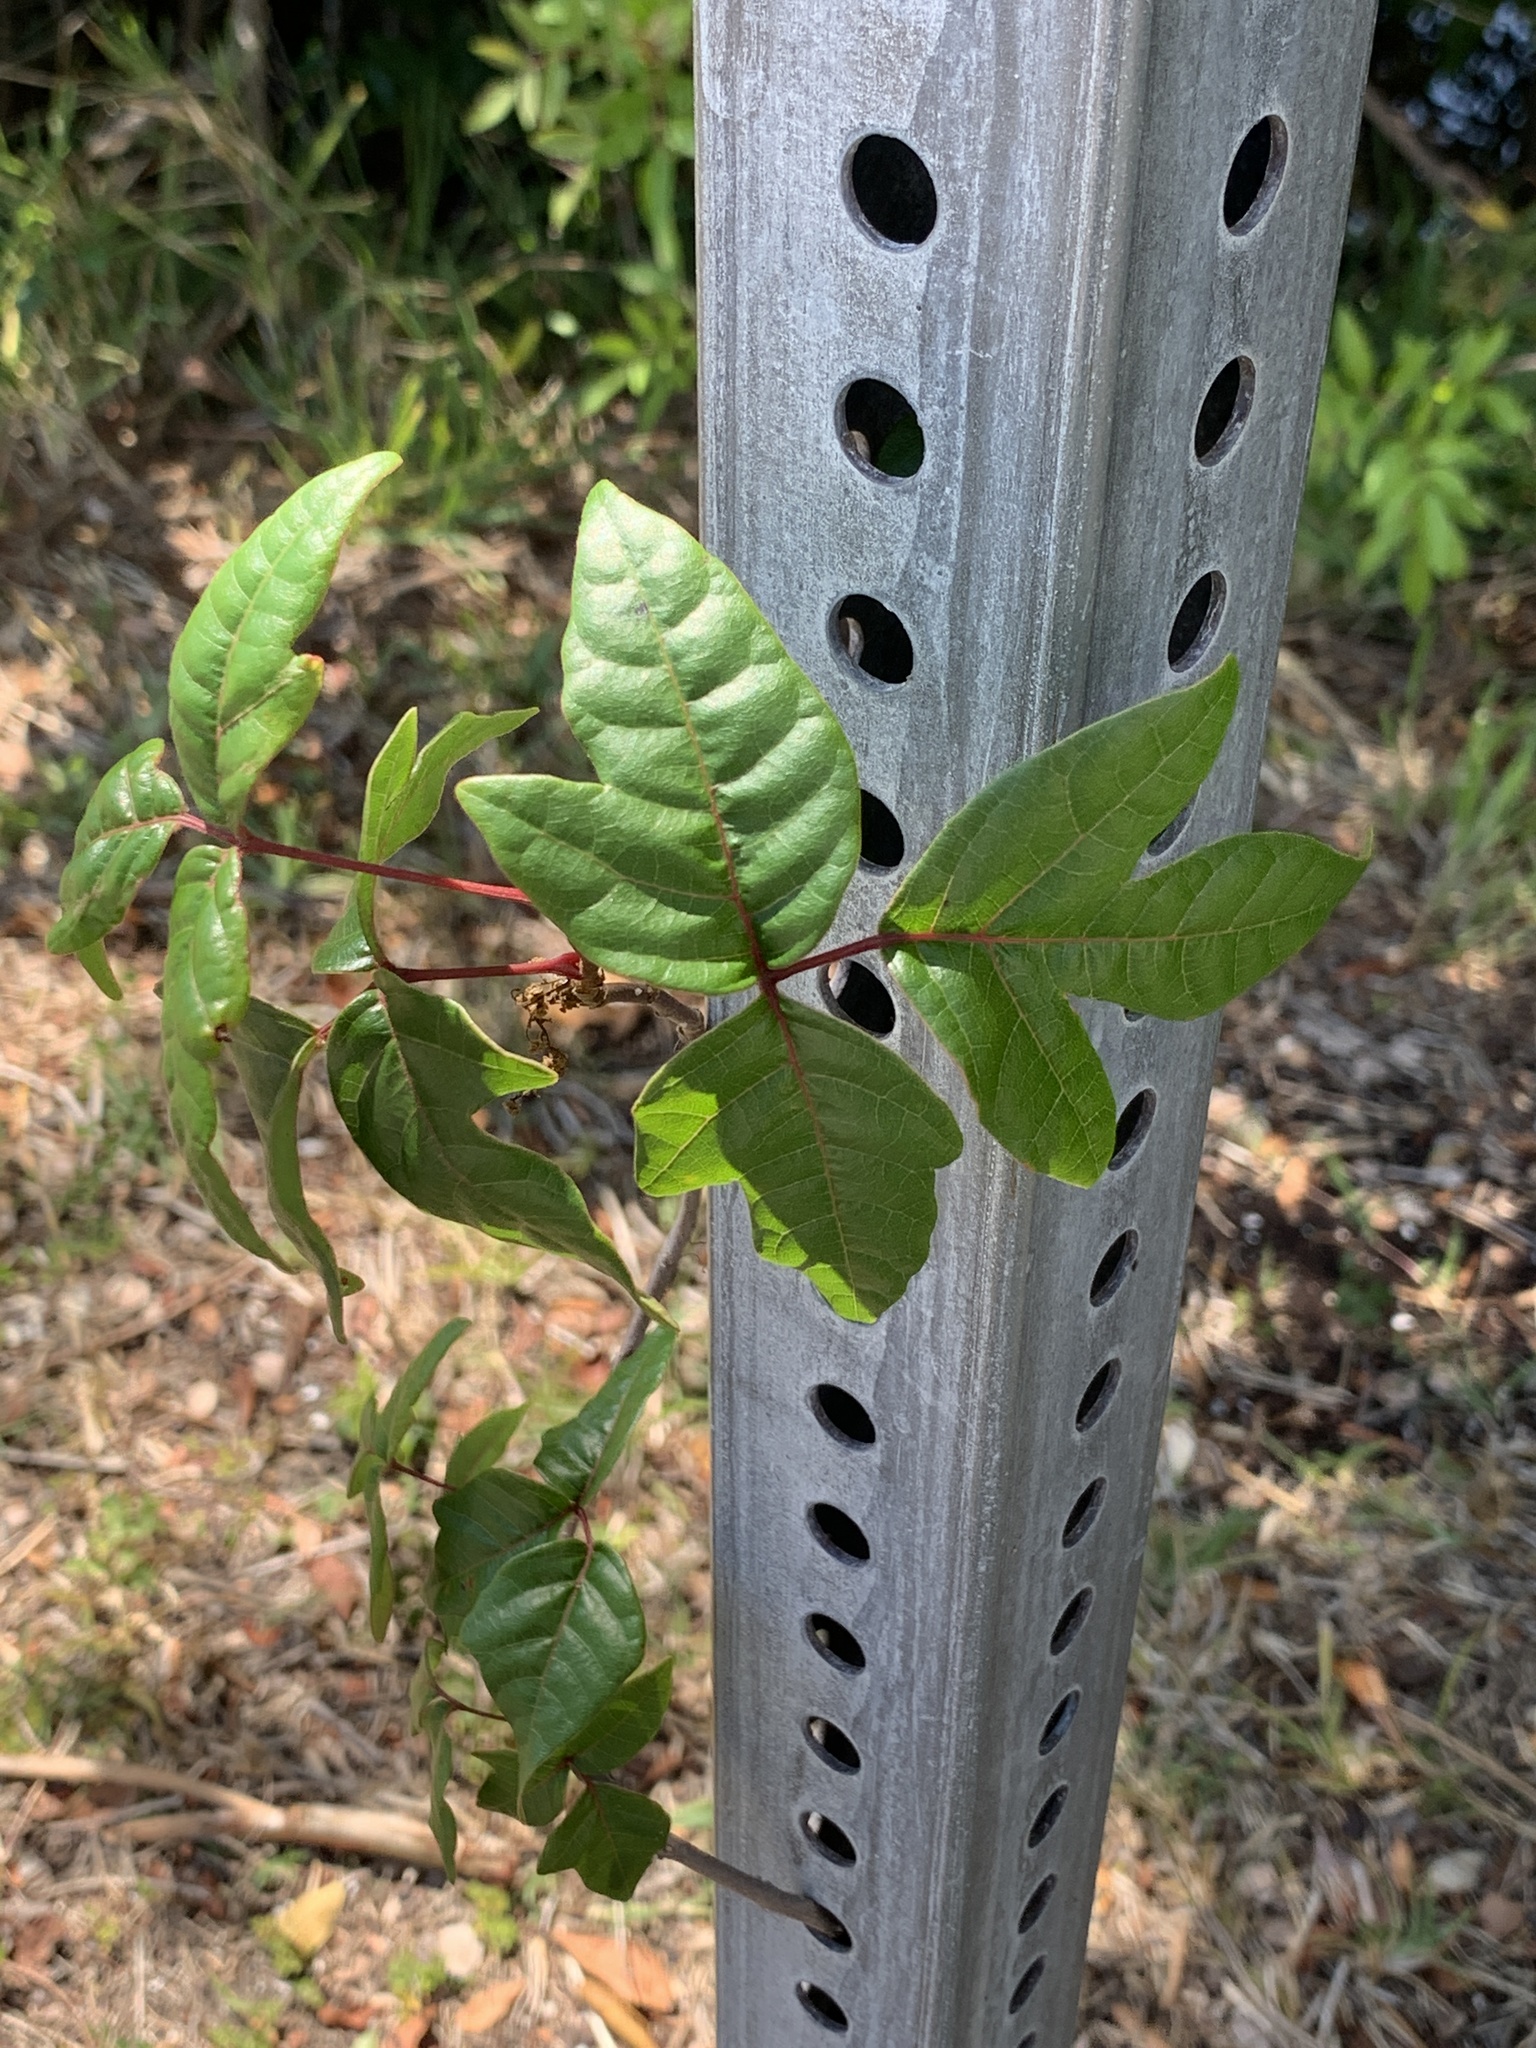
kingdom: Plantae
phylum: Tracheophyta
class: Magnoliopsida
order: Sapindales
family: Anacardiaceae
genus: Toxicodendron
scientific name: Toxicodendron radicans
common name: Poison ivy
